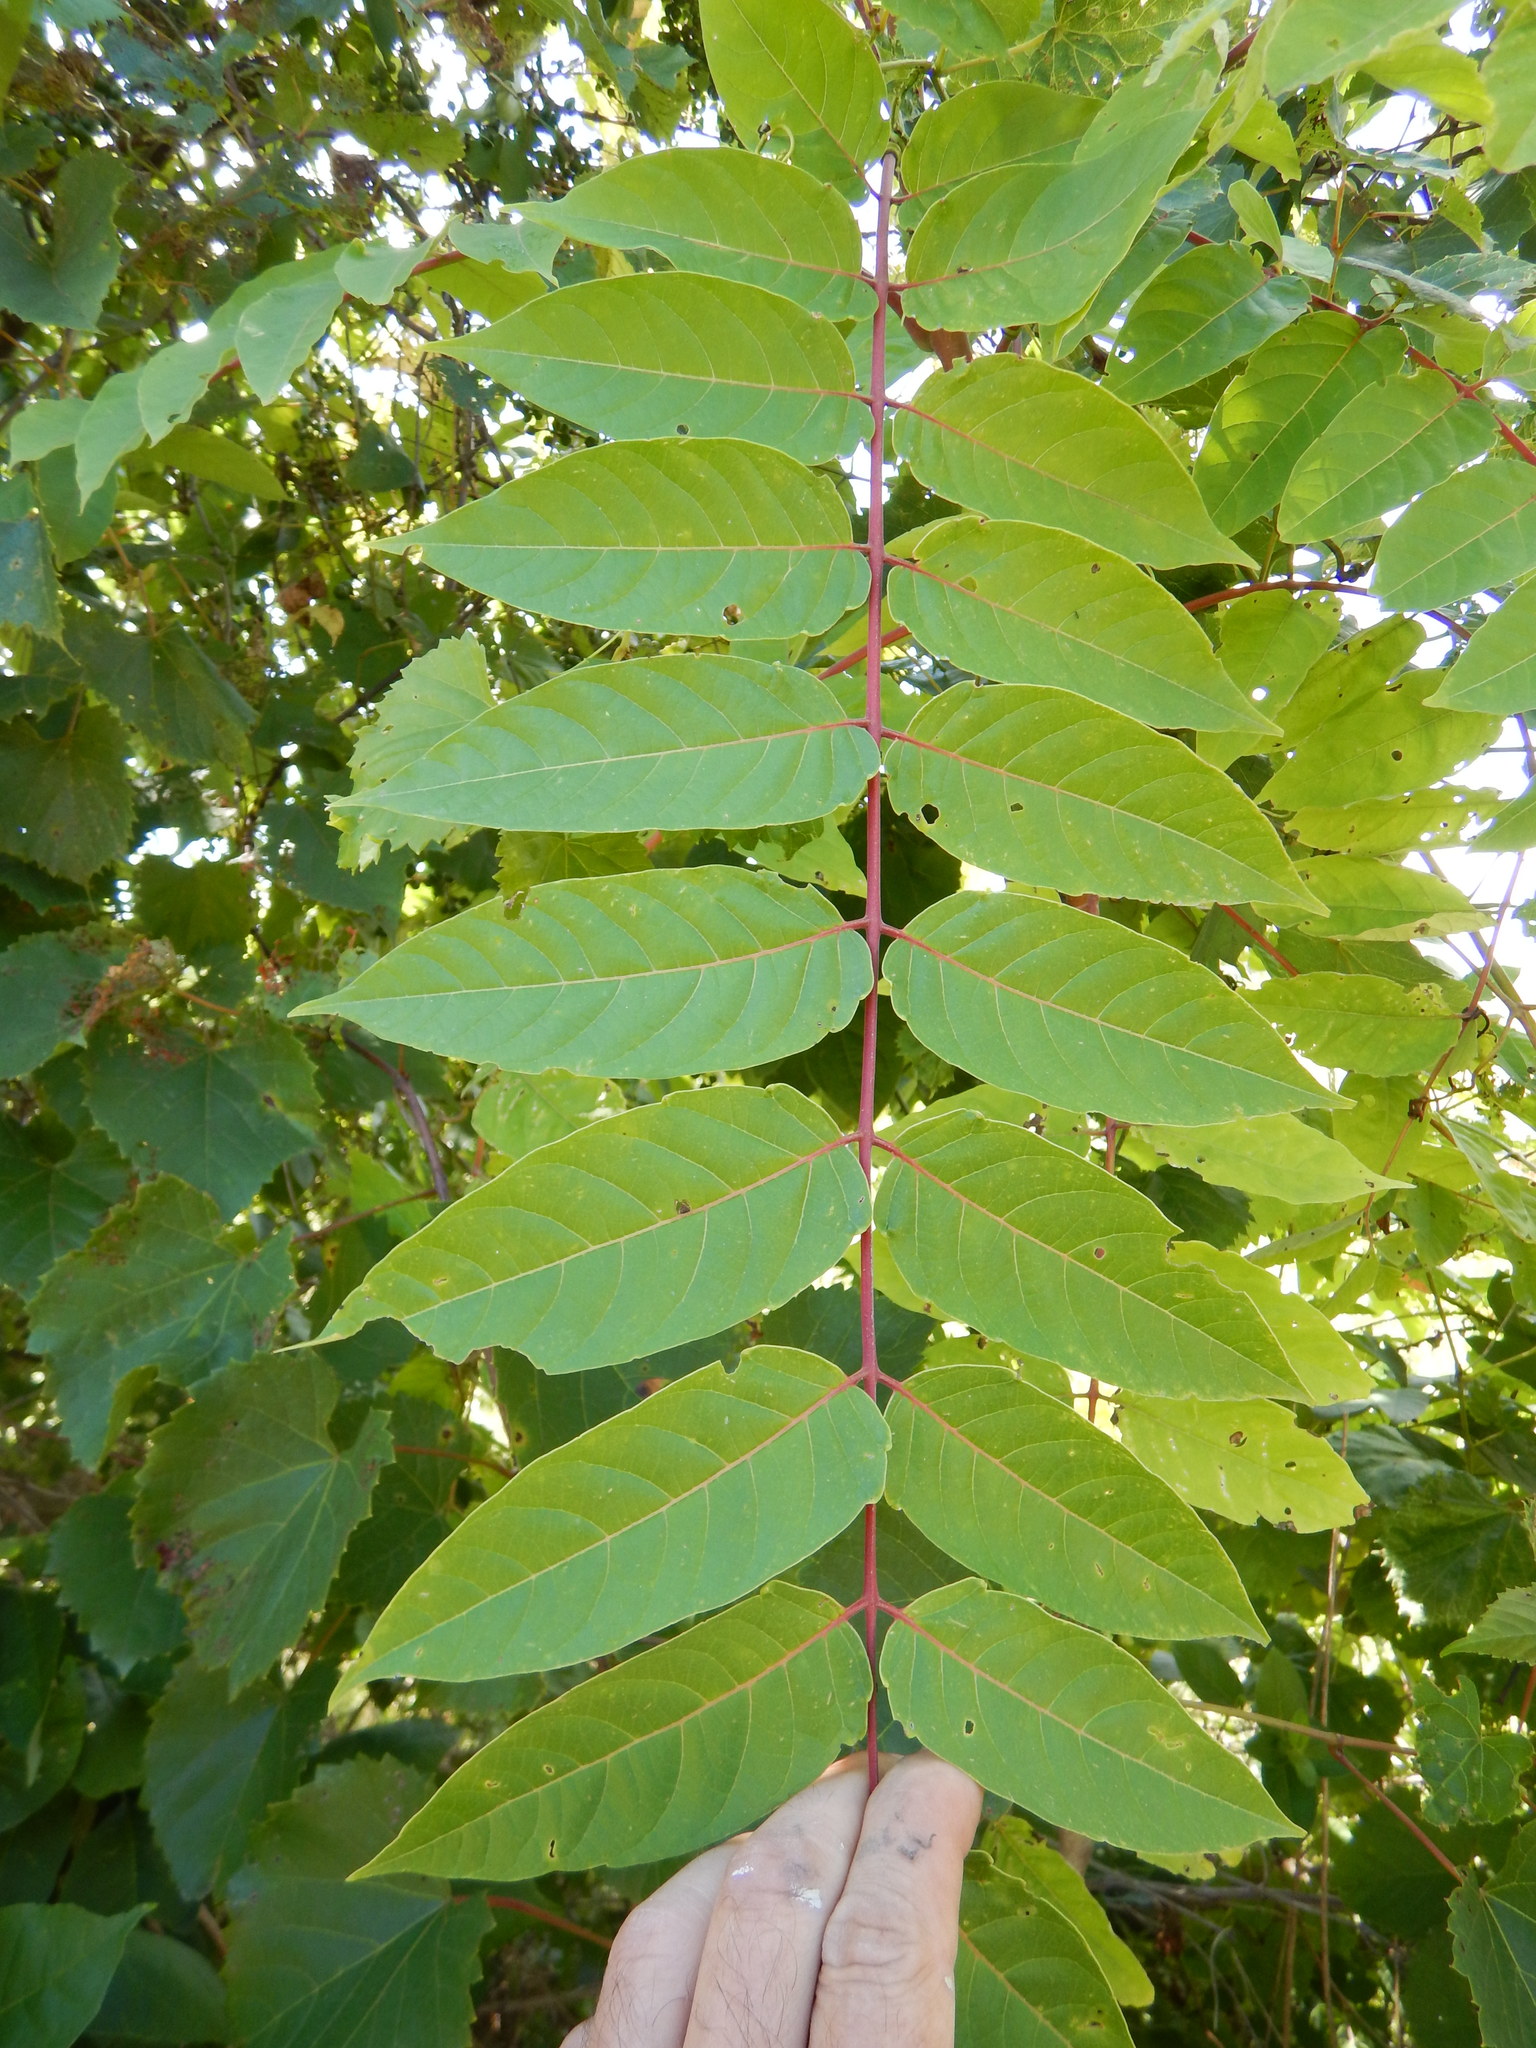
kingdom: Plantae
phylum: Tracheophyta
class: Magnoliopsida
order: Sapindales
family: Simaroubaceae
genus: Ailanthus
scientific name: Ailanthus altissima
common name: Tree-of-heaven
